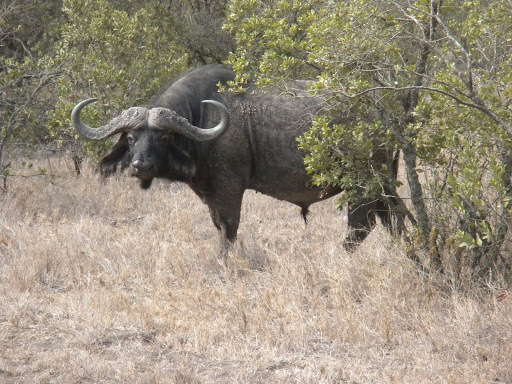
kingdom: Animalia
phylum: Chordata
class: Mammalia
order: Artiodactyla
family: Bovidae
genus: Syncerus
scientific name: Syncerus caffer
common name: African buffalo
